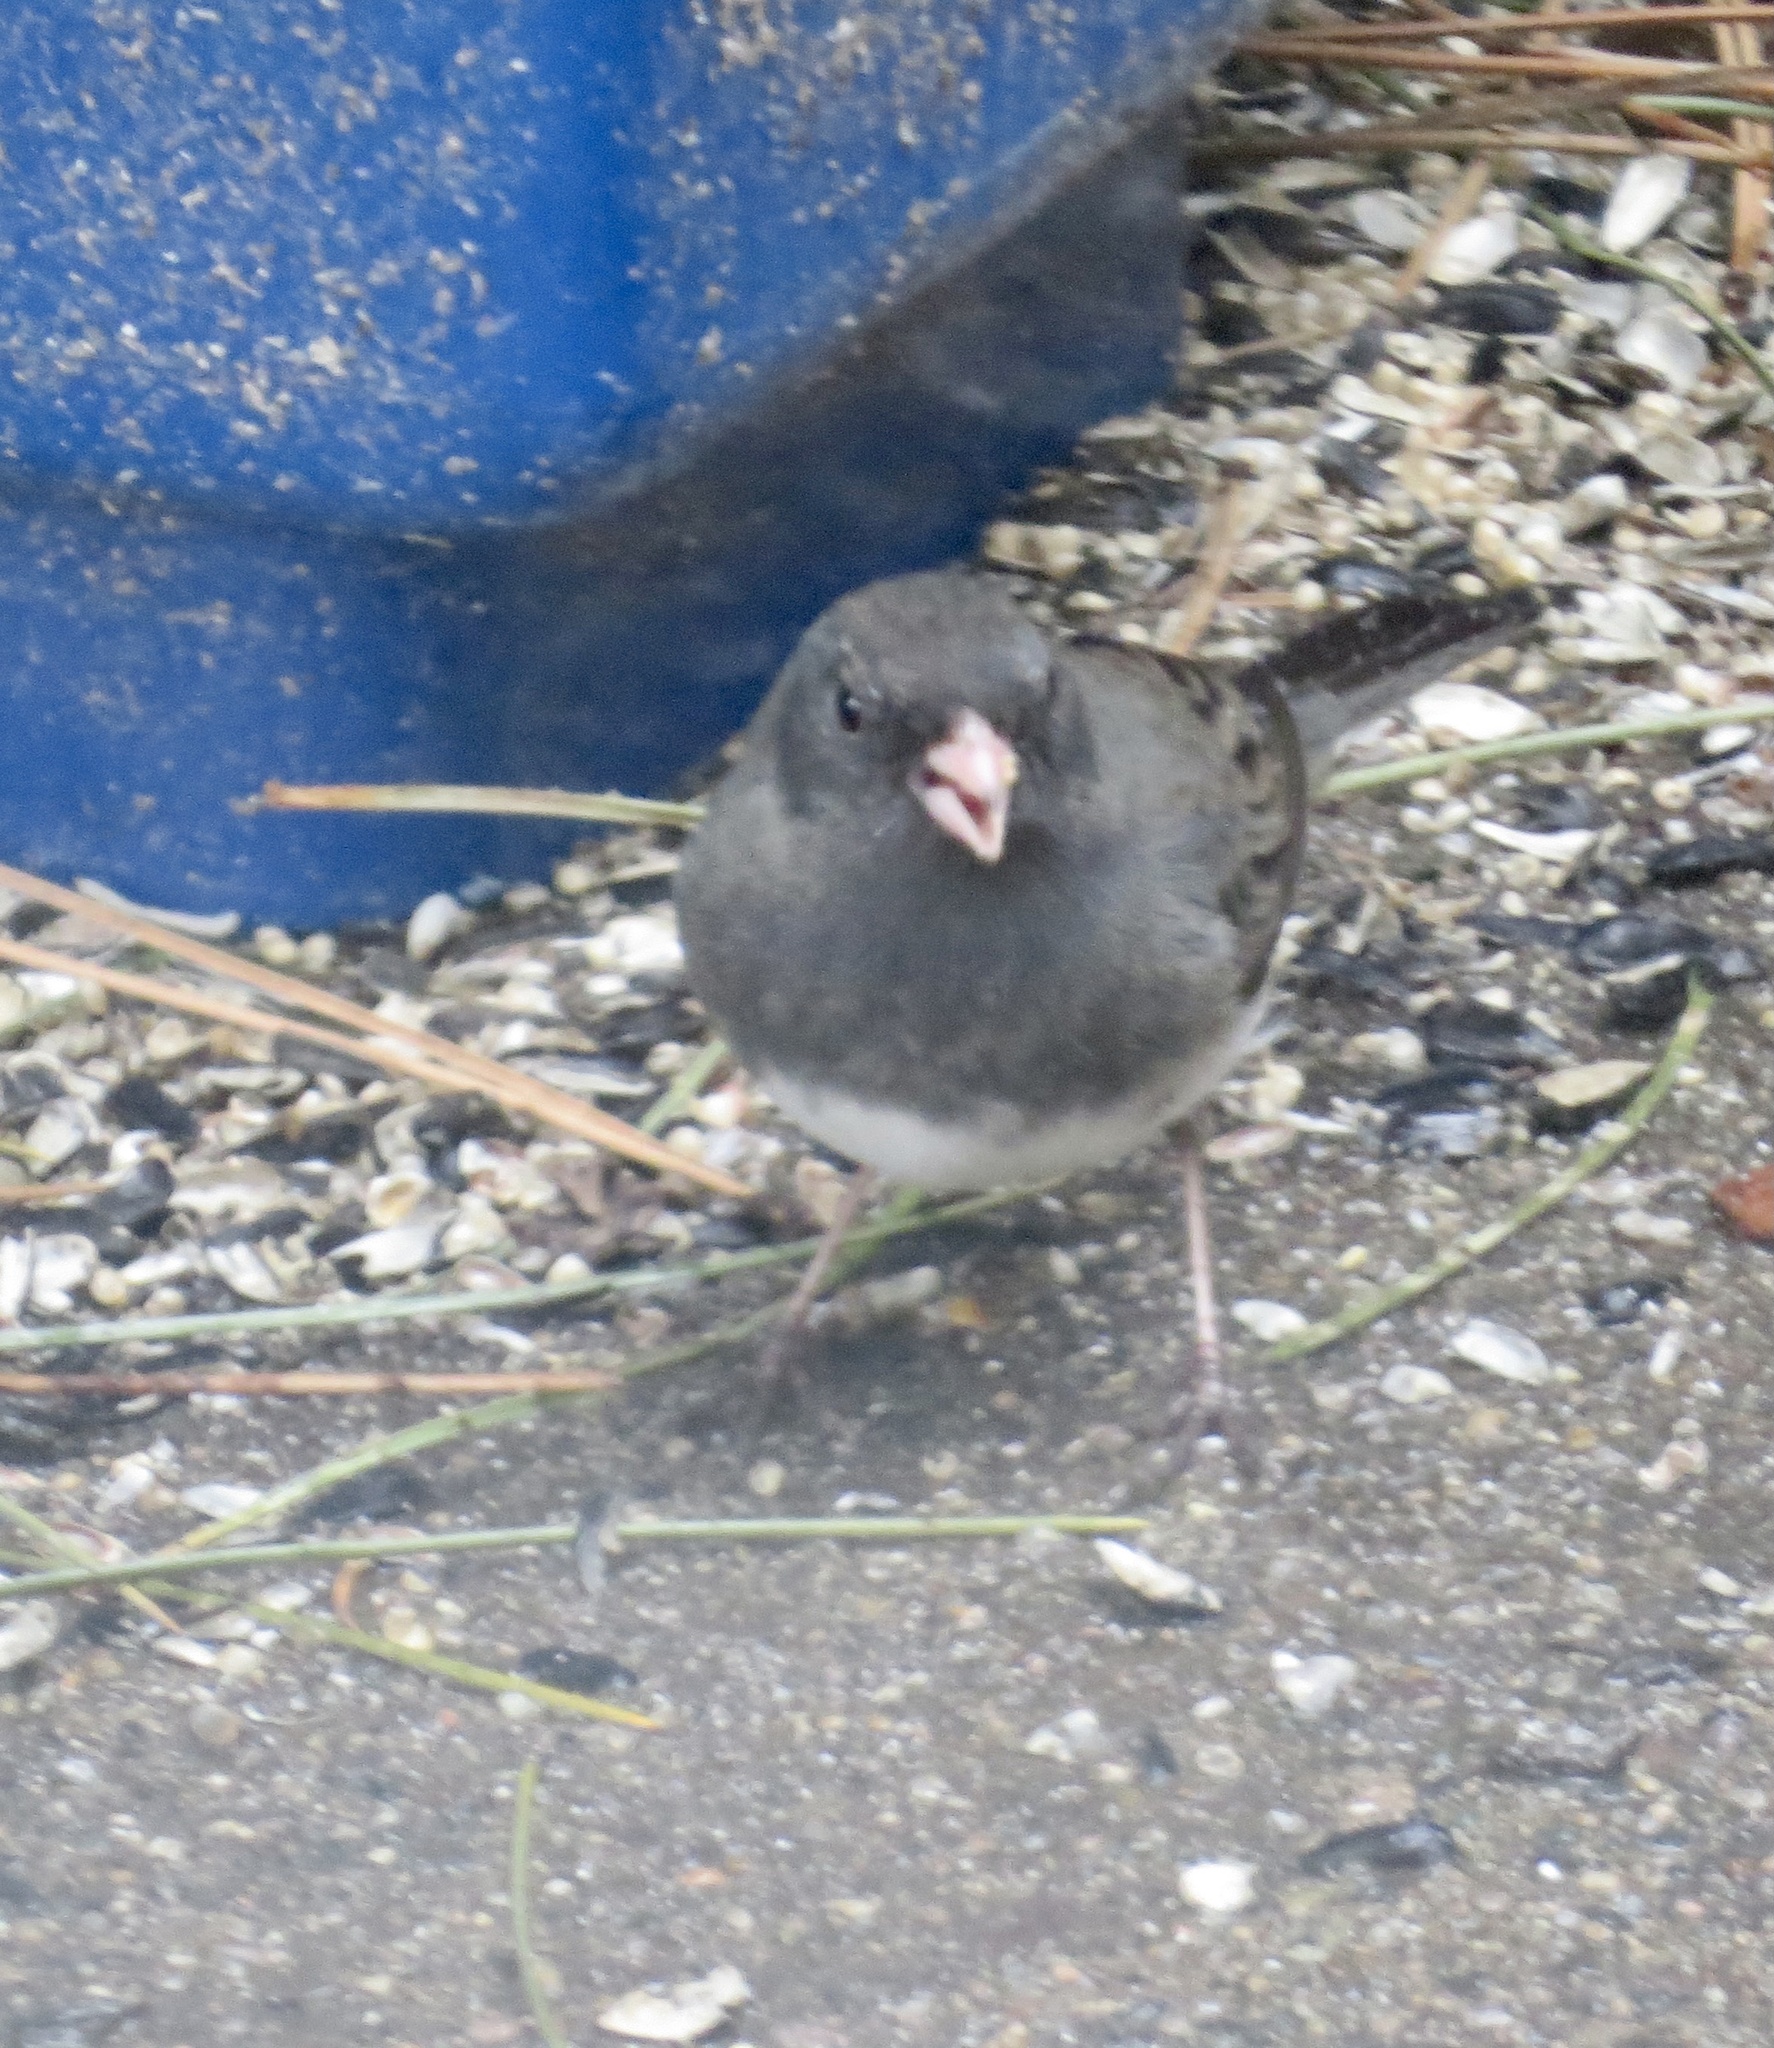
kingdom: Animalia
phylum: Chordata
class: Aves
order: Passeriformes
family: Passerellidae
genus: Junco
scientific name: Junco hyemalis
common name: Dark-eyed junco
